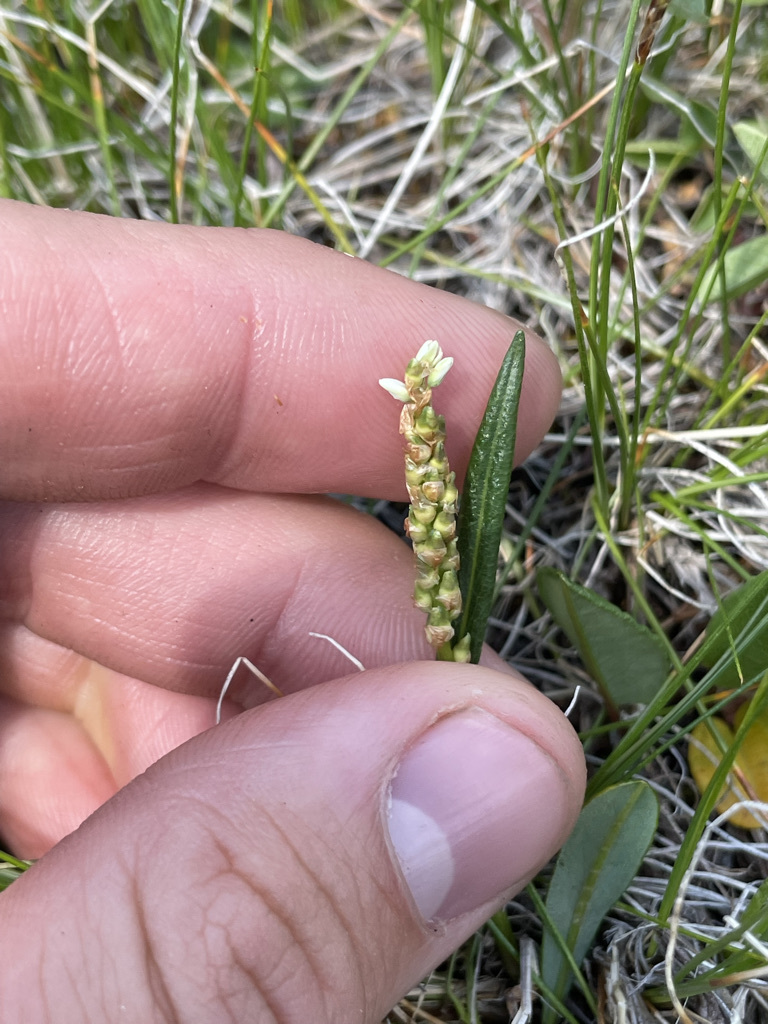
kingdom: Plantae
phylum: Tracheophyta
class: Magnoliopsida
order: Caryophyllales
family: Polygonaceae
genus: Bistorta
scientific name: Bistorta vivipara
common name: Alpine bistort
